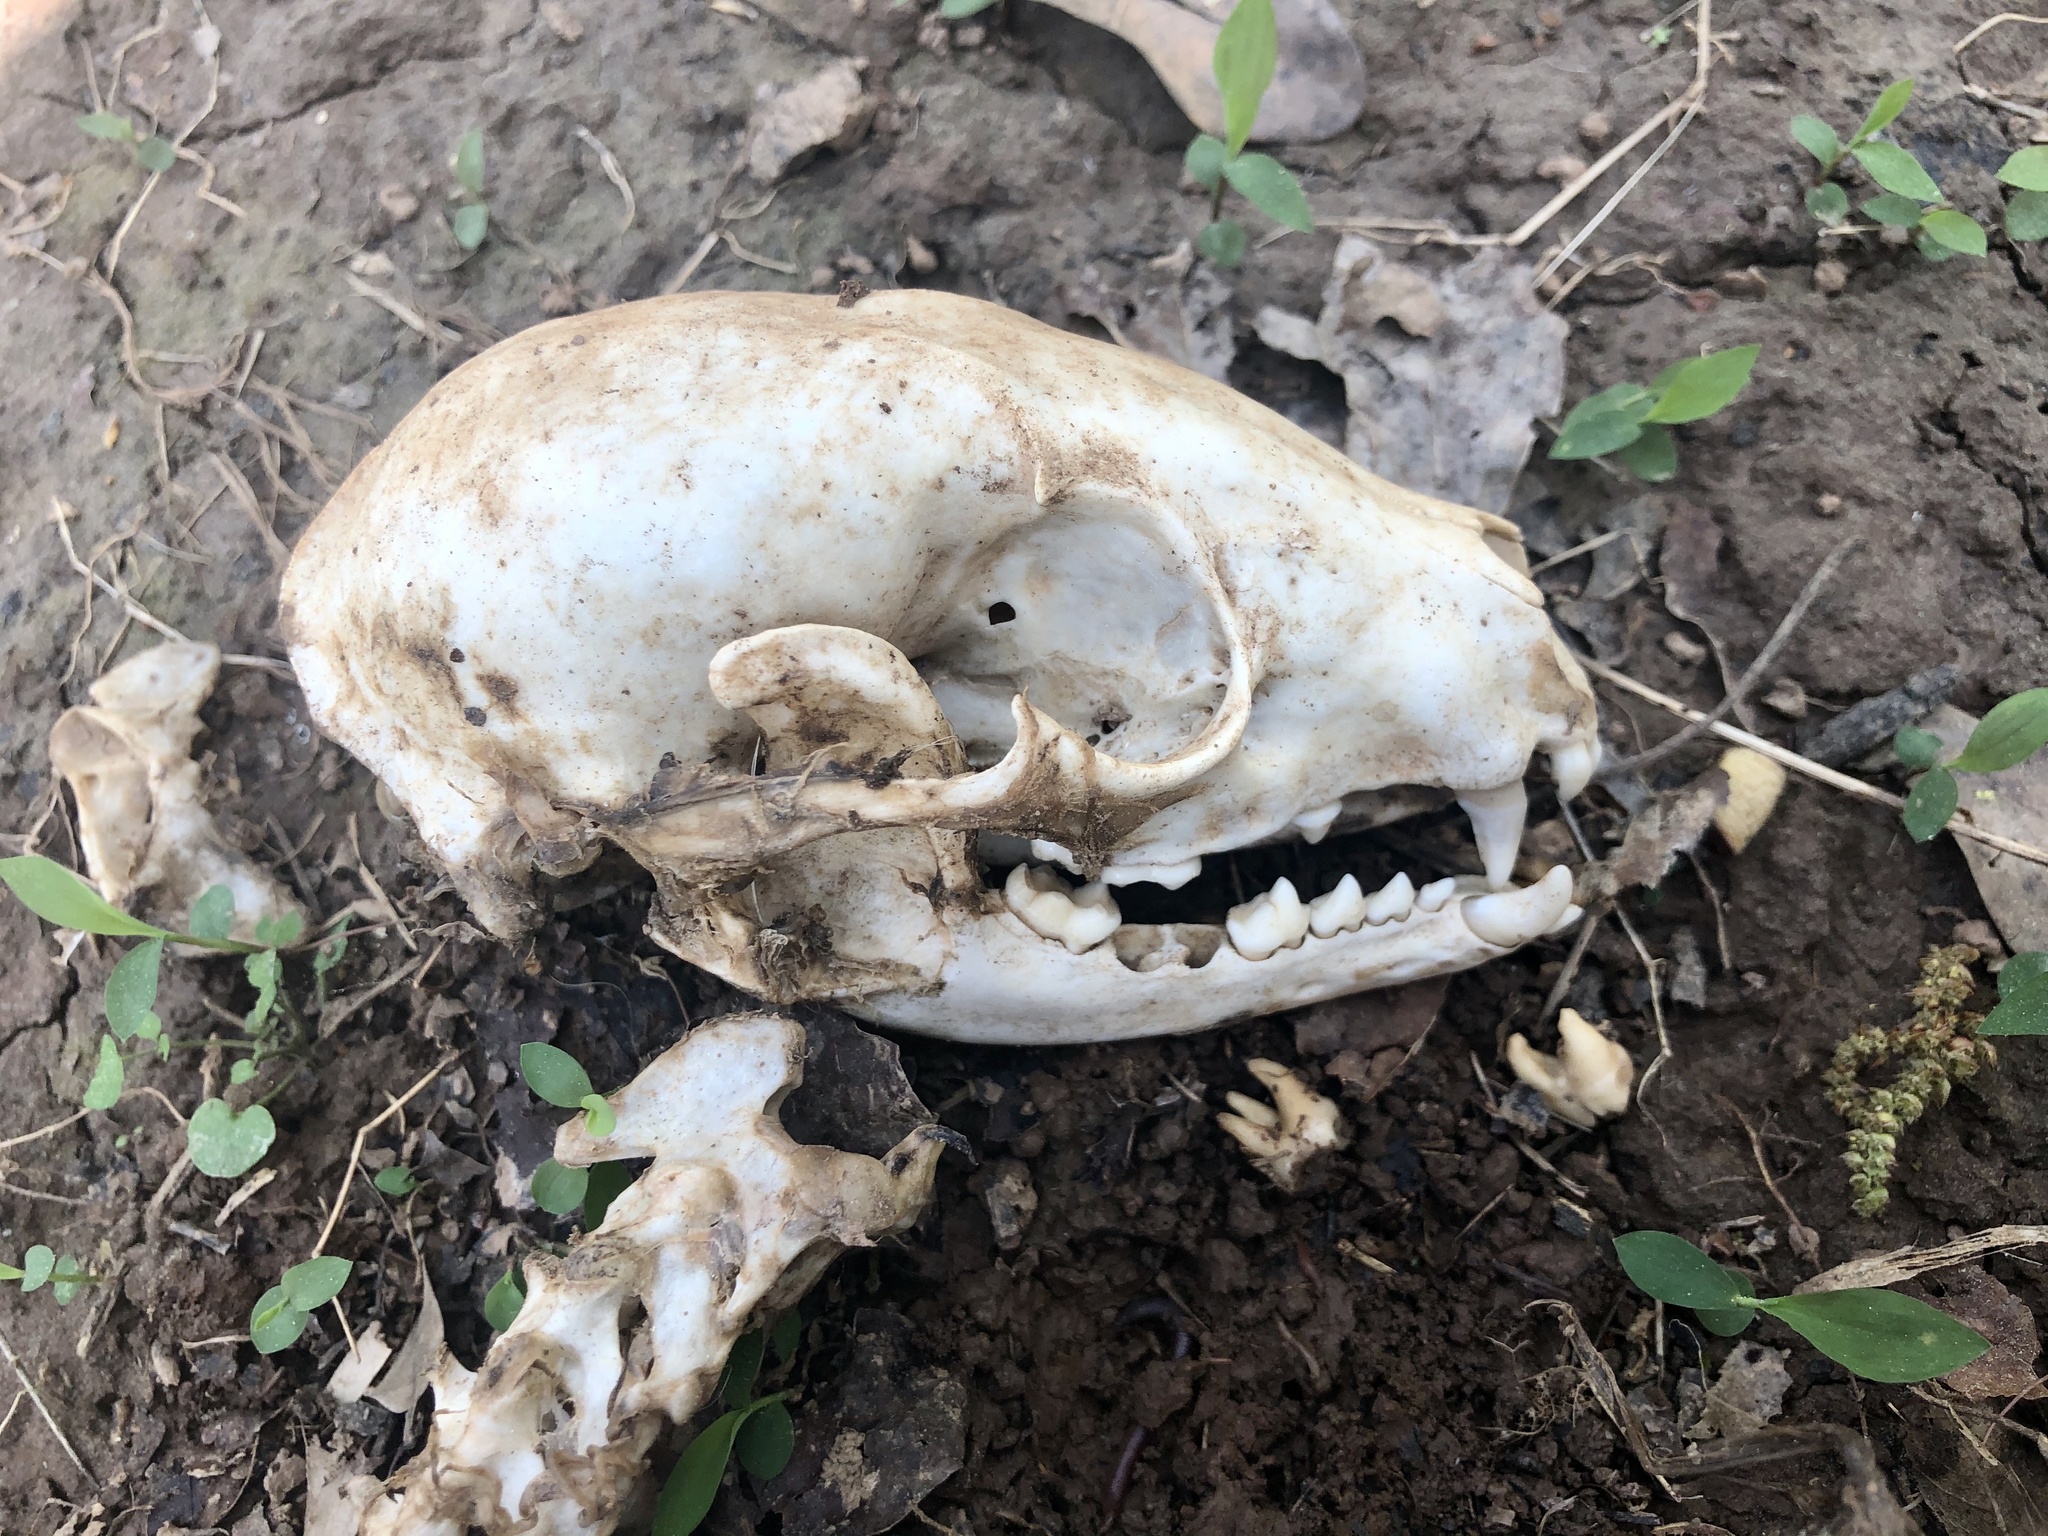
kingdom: Animalia
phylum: Chordata
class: Mammalia
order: Carnivora
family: Procyonidae
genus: Procyon
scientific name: Procyon lotor
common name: Raccoon
